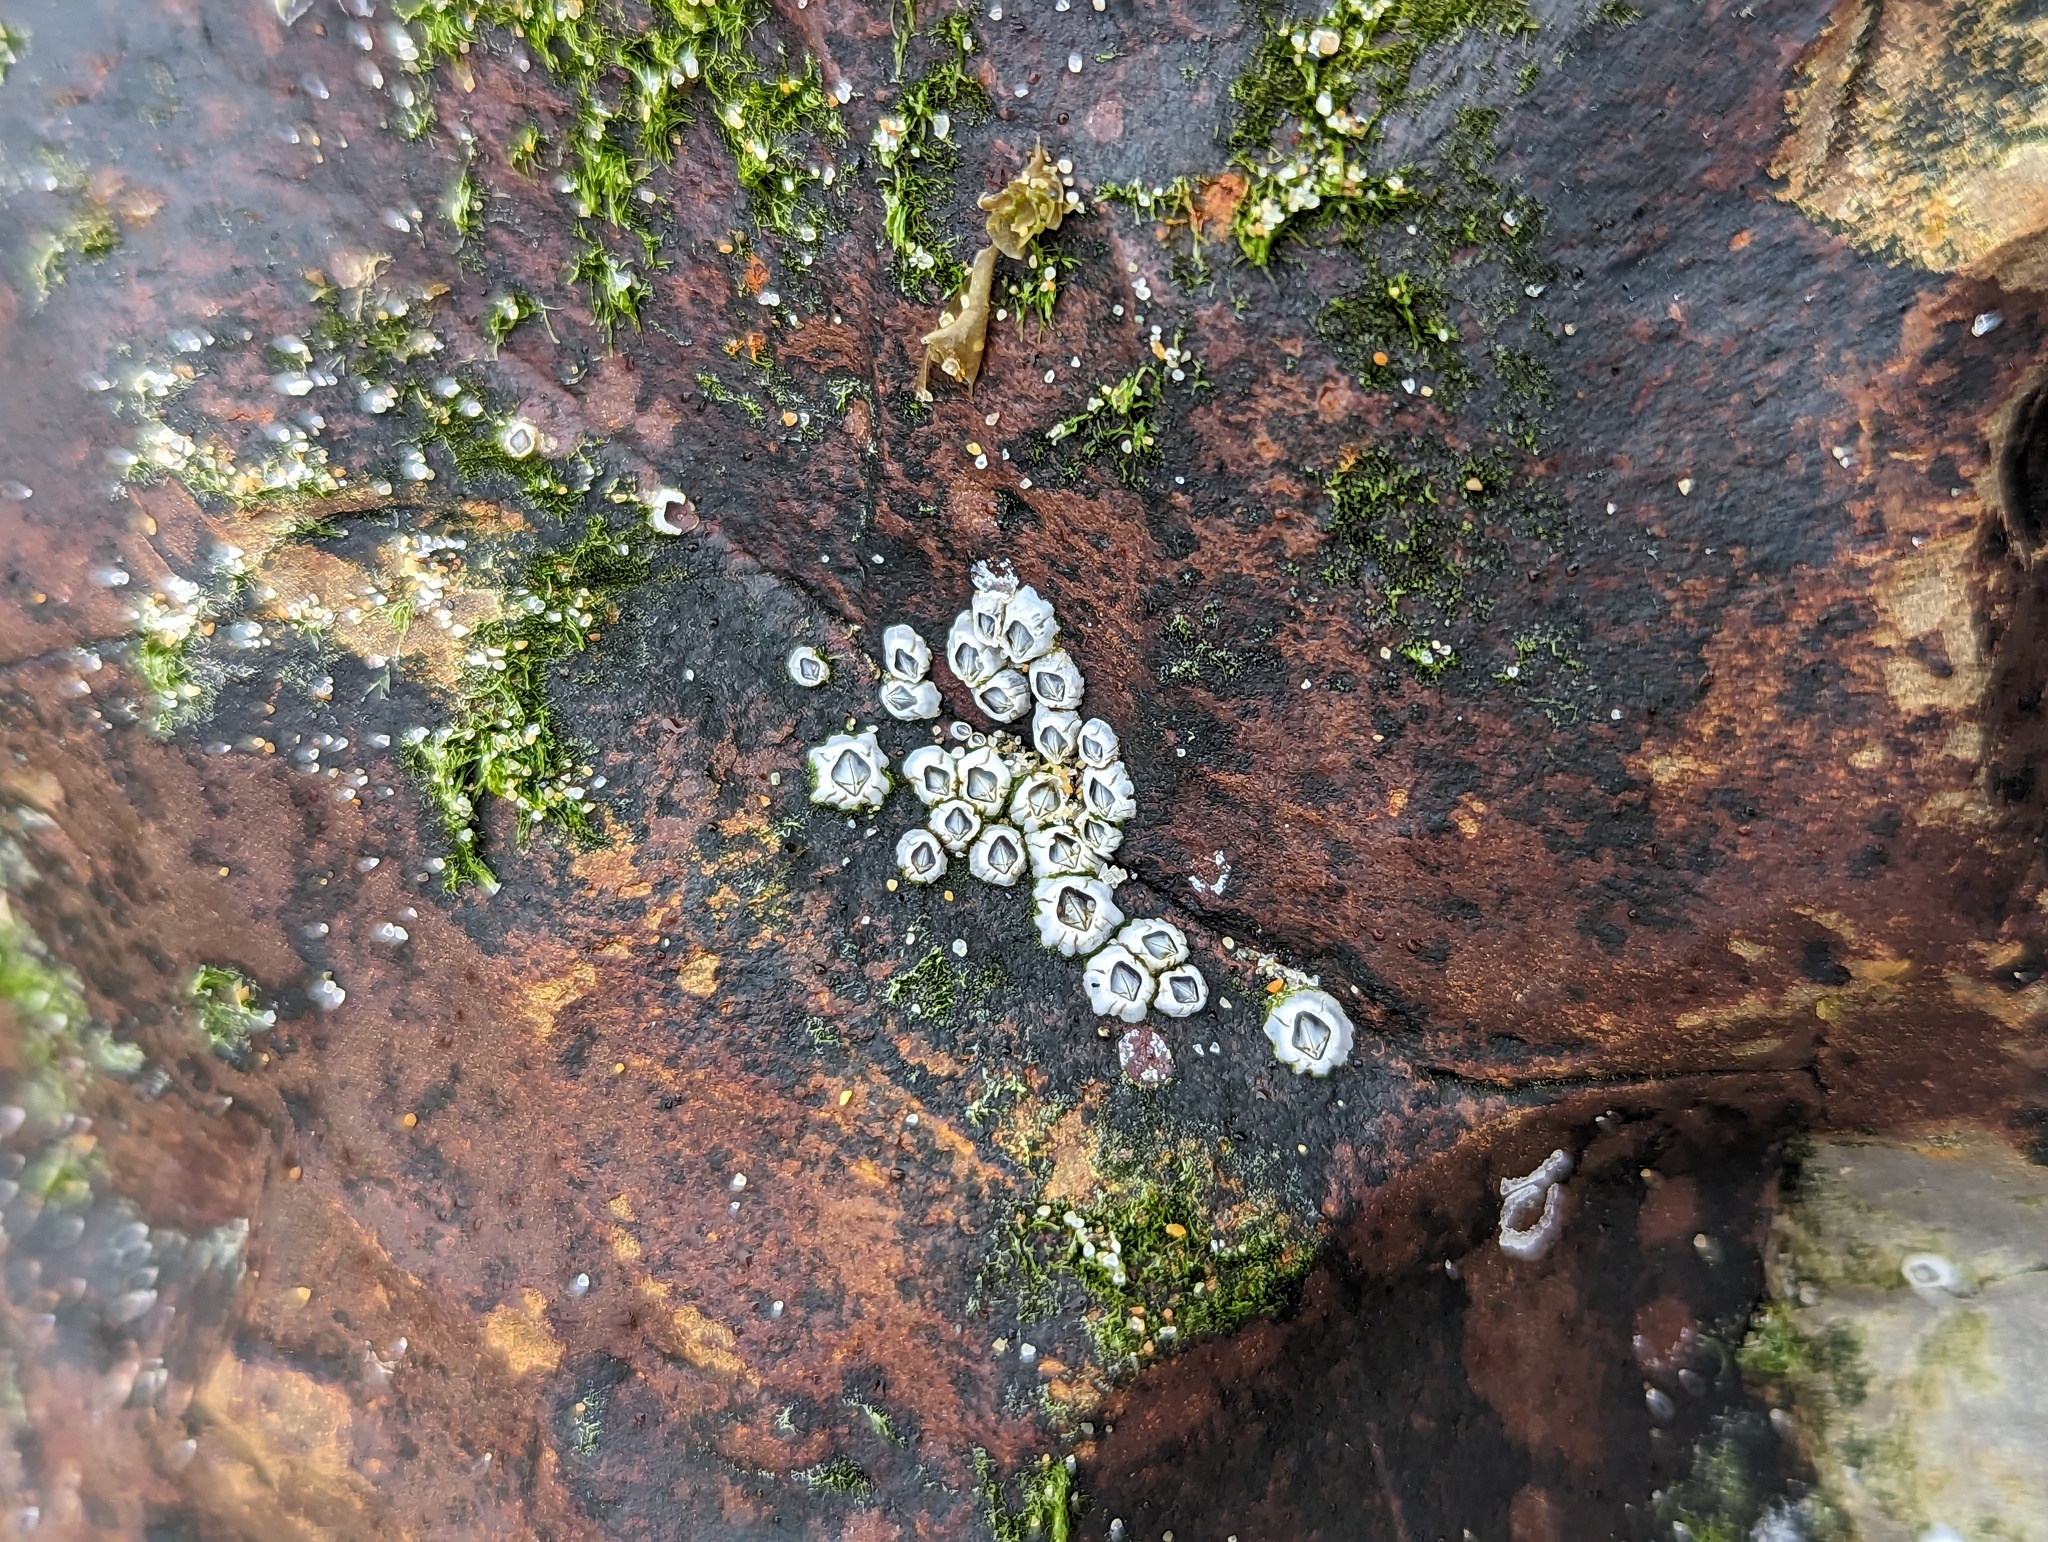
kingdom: Animalia
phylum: Arthropoda
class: Maxillopoda
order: Sessilia
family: Balanidae
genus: Balanus
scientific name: Balanus glandula
